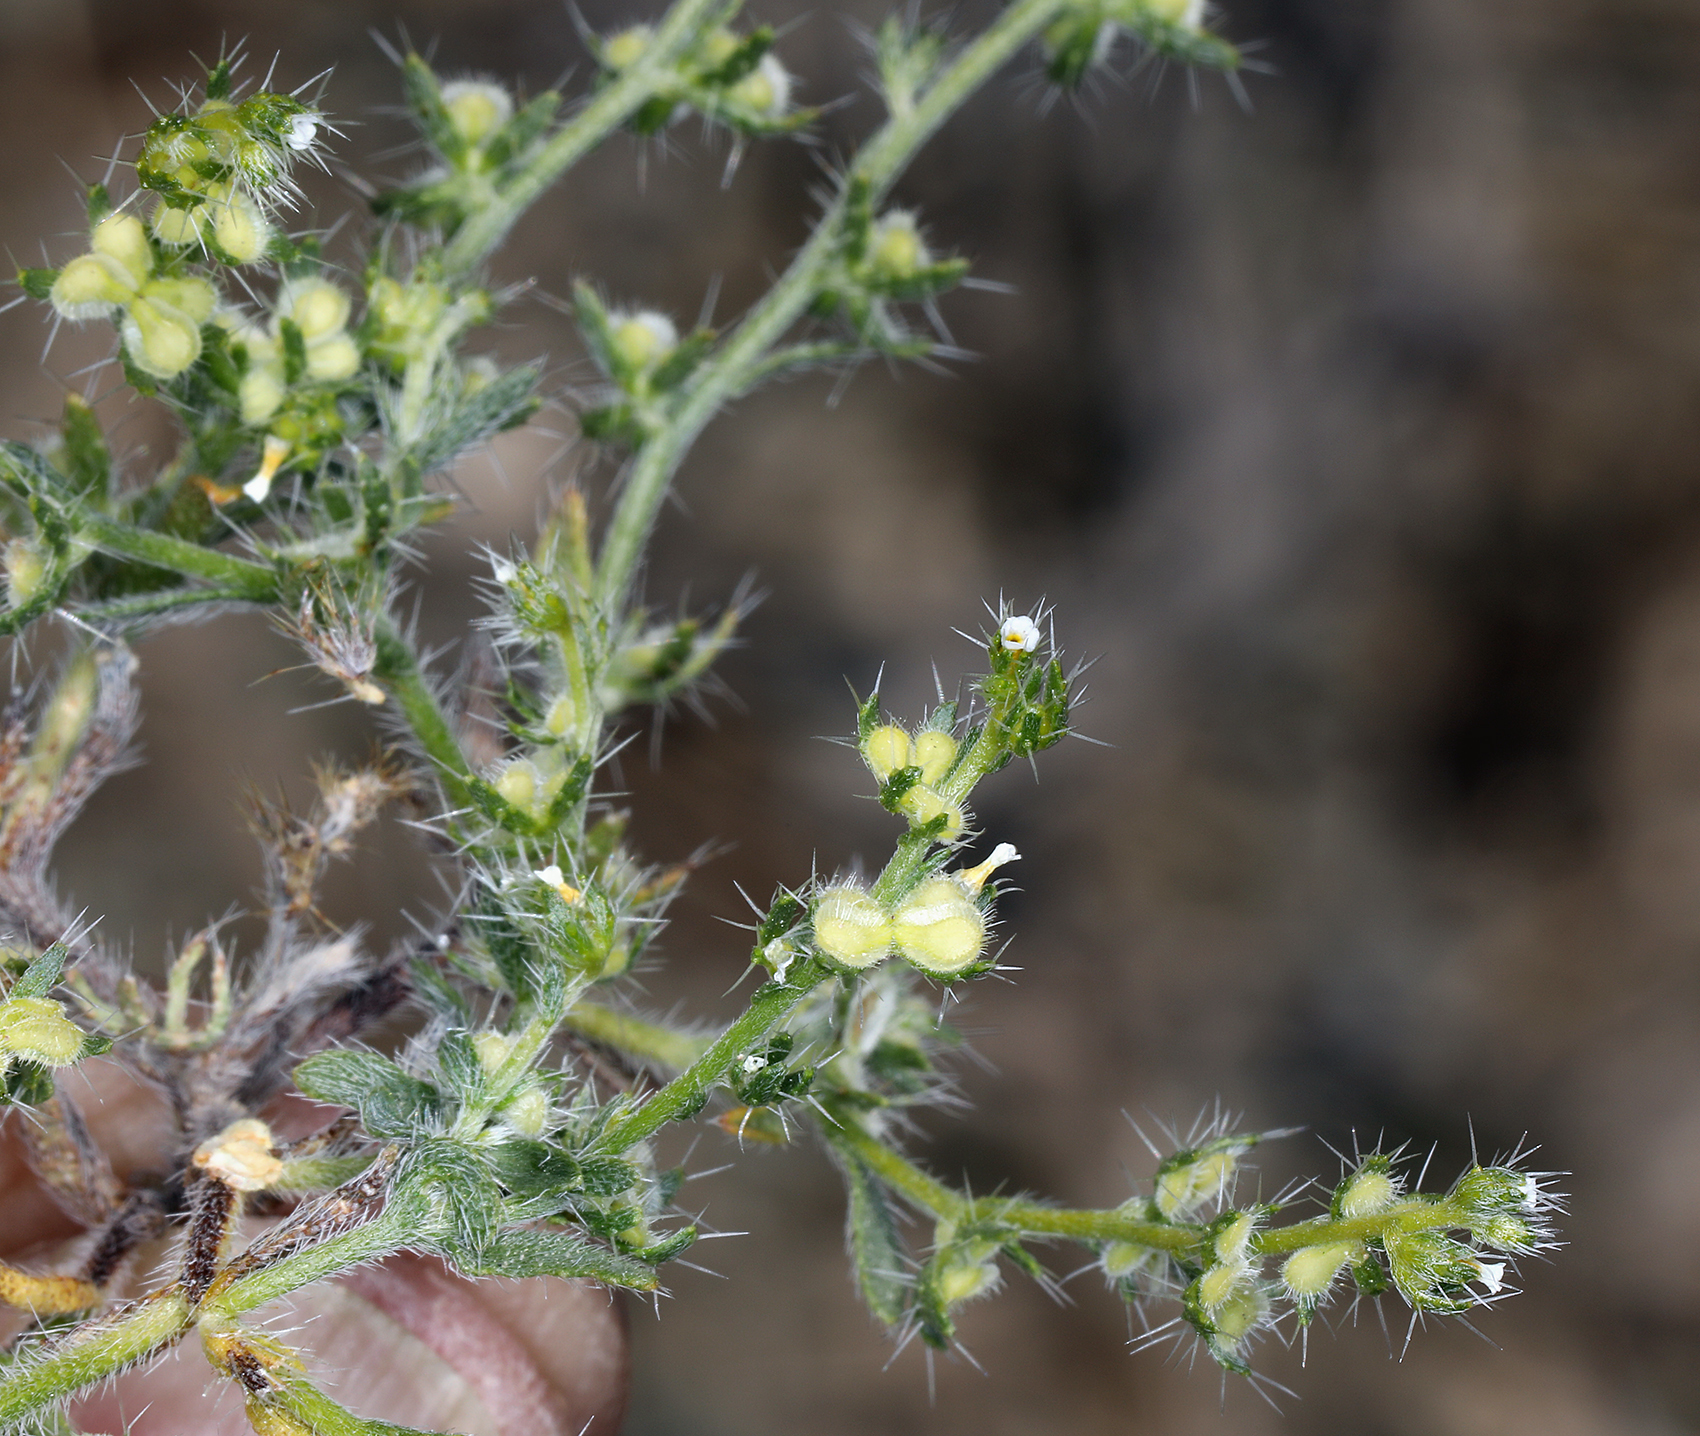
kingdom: Plantae
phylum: Tracheophyta
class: Magnoliopsida
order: Boraginales
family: Boraginaceae
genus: Pectocarya
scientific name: Pectocarya setosa
